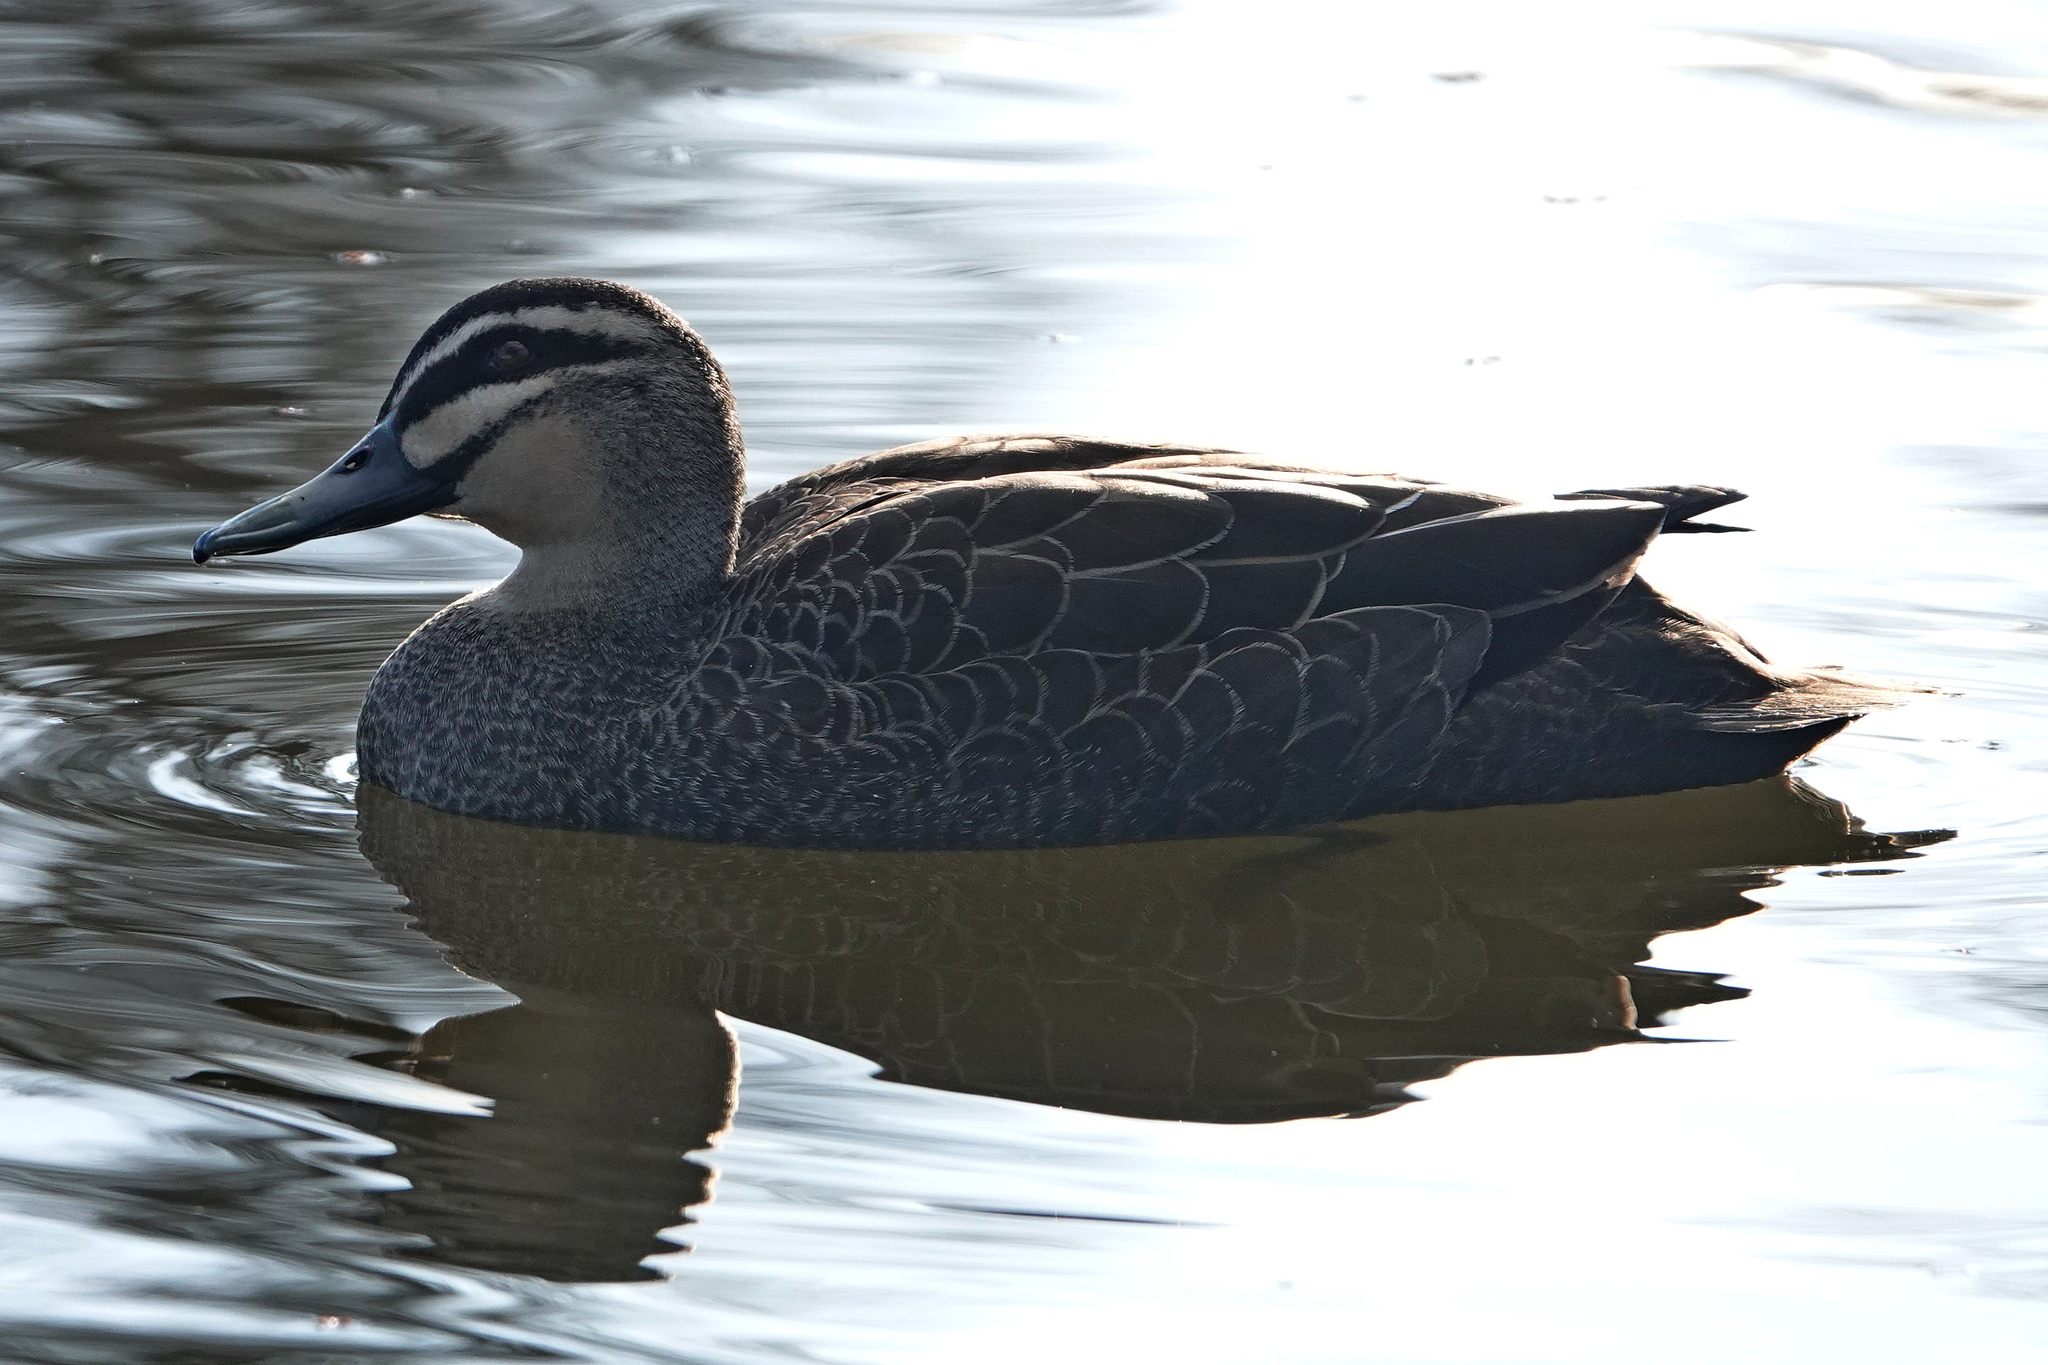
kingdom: Animalia
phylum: Chordata
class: Aves
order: Anseriformes
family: Anatidae
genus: Anas
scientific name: Anas superciliosa
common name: Pacific black duck
